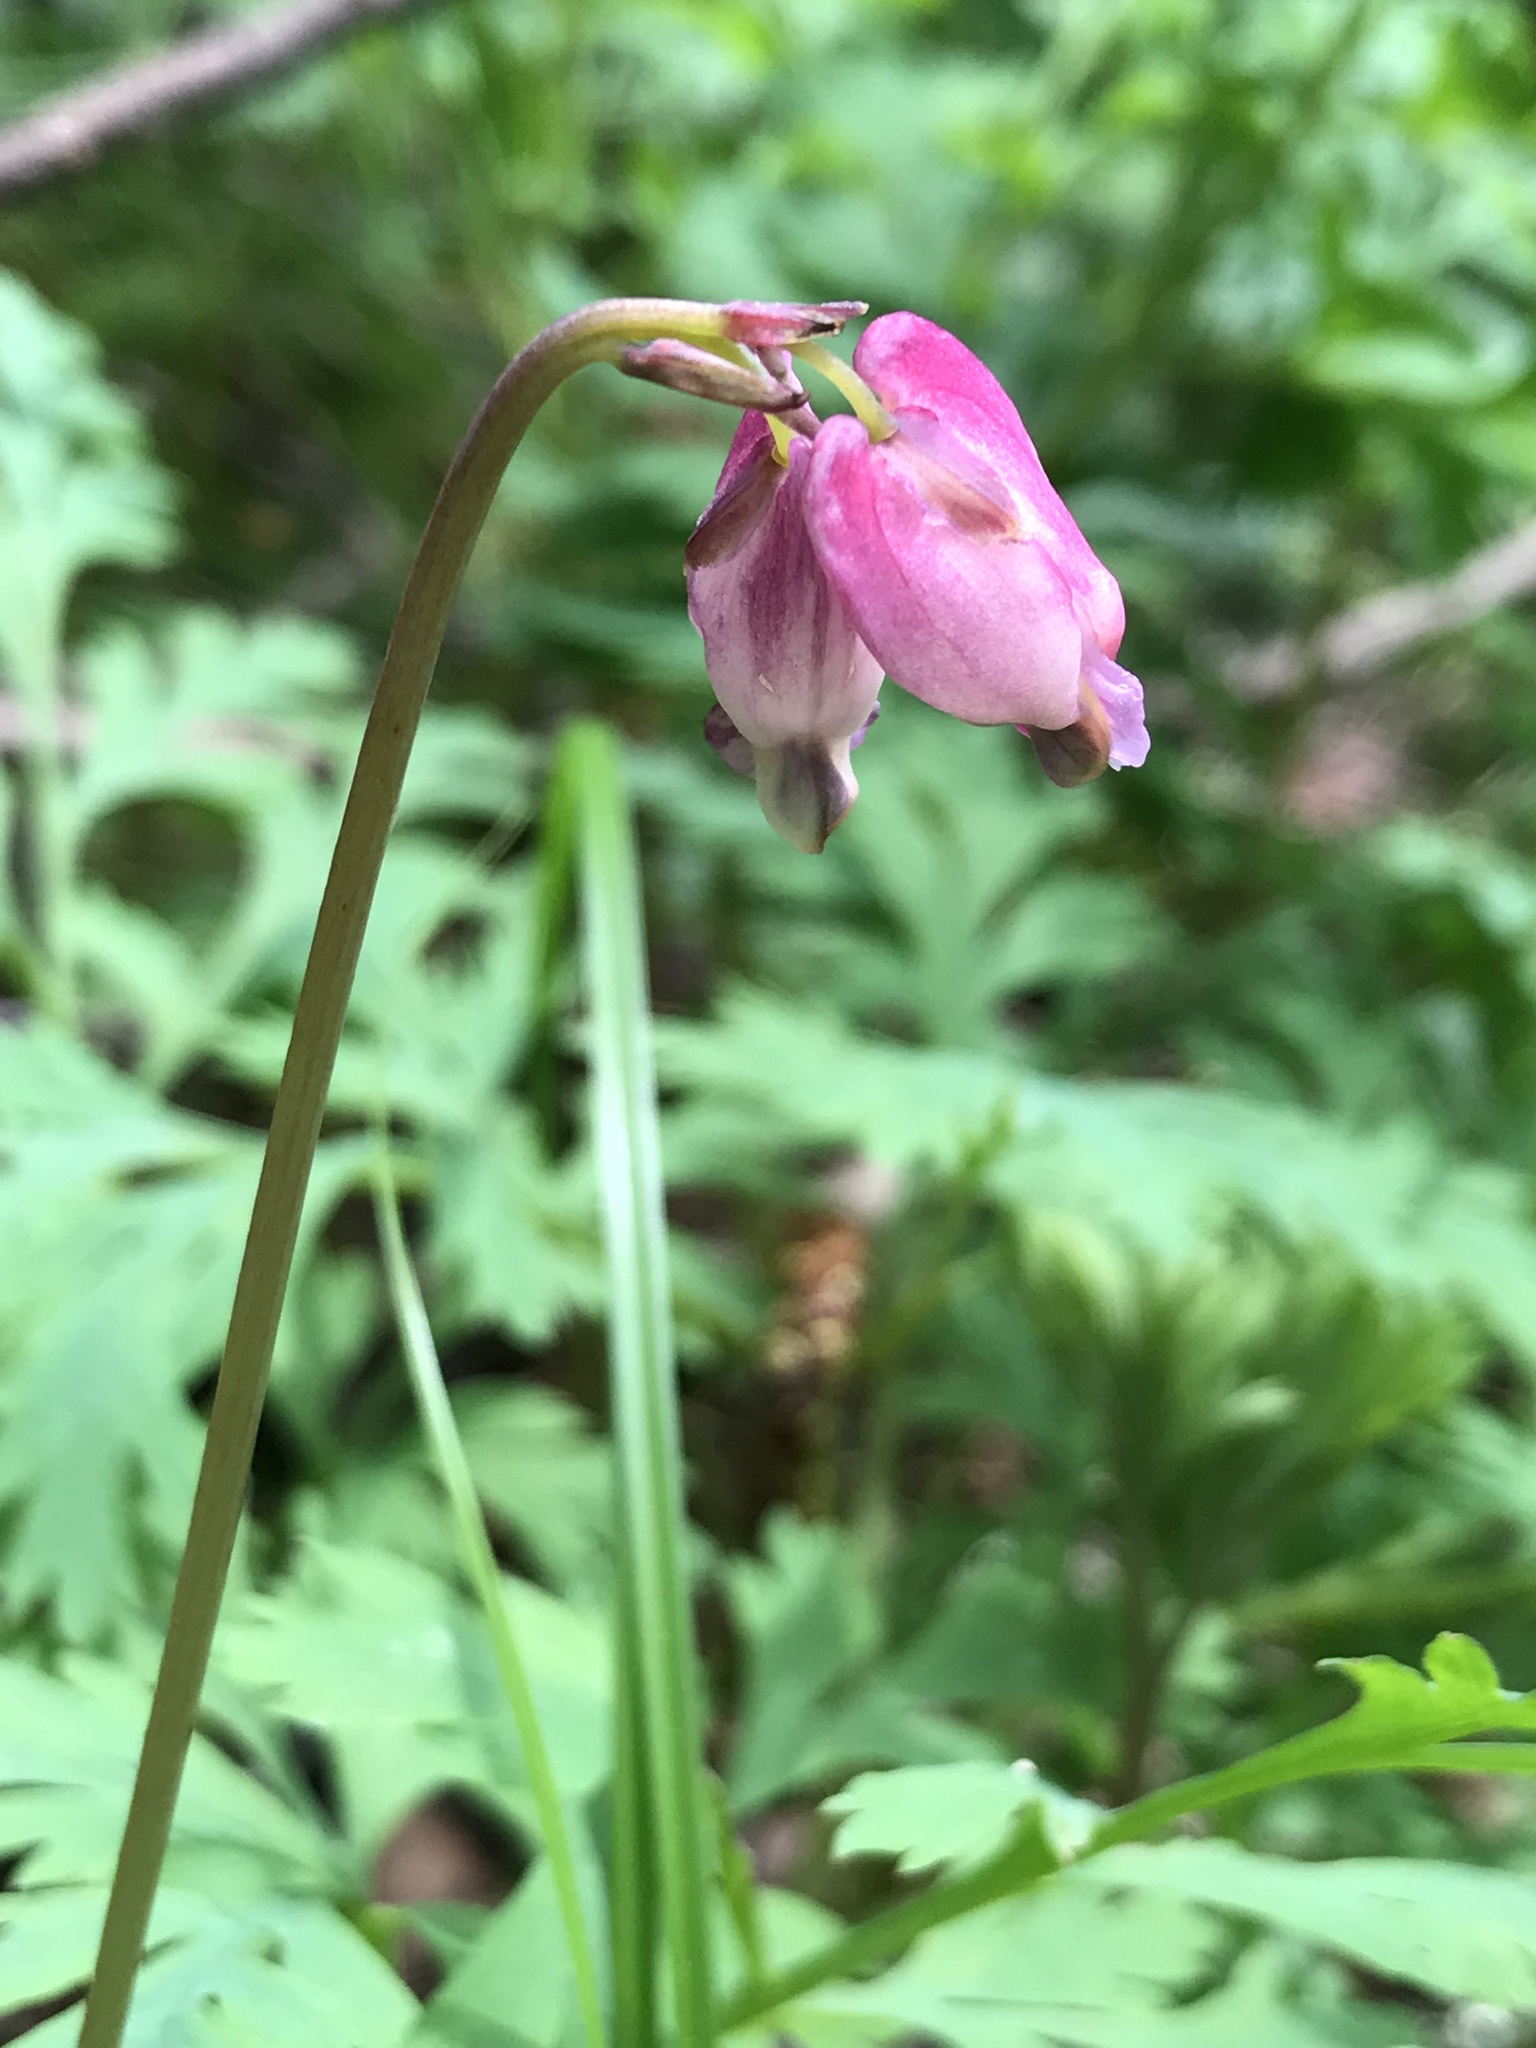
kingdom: Plantae
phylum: Tracheophyta
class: Magnoliopsida
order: Ranunculales
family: Papaveraceae
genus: Dicentra
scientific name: Dicentra formosa
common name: Bleeding-heart
